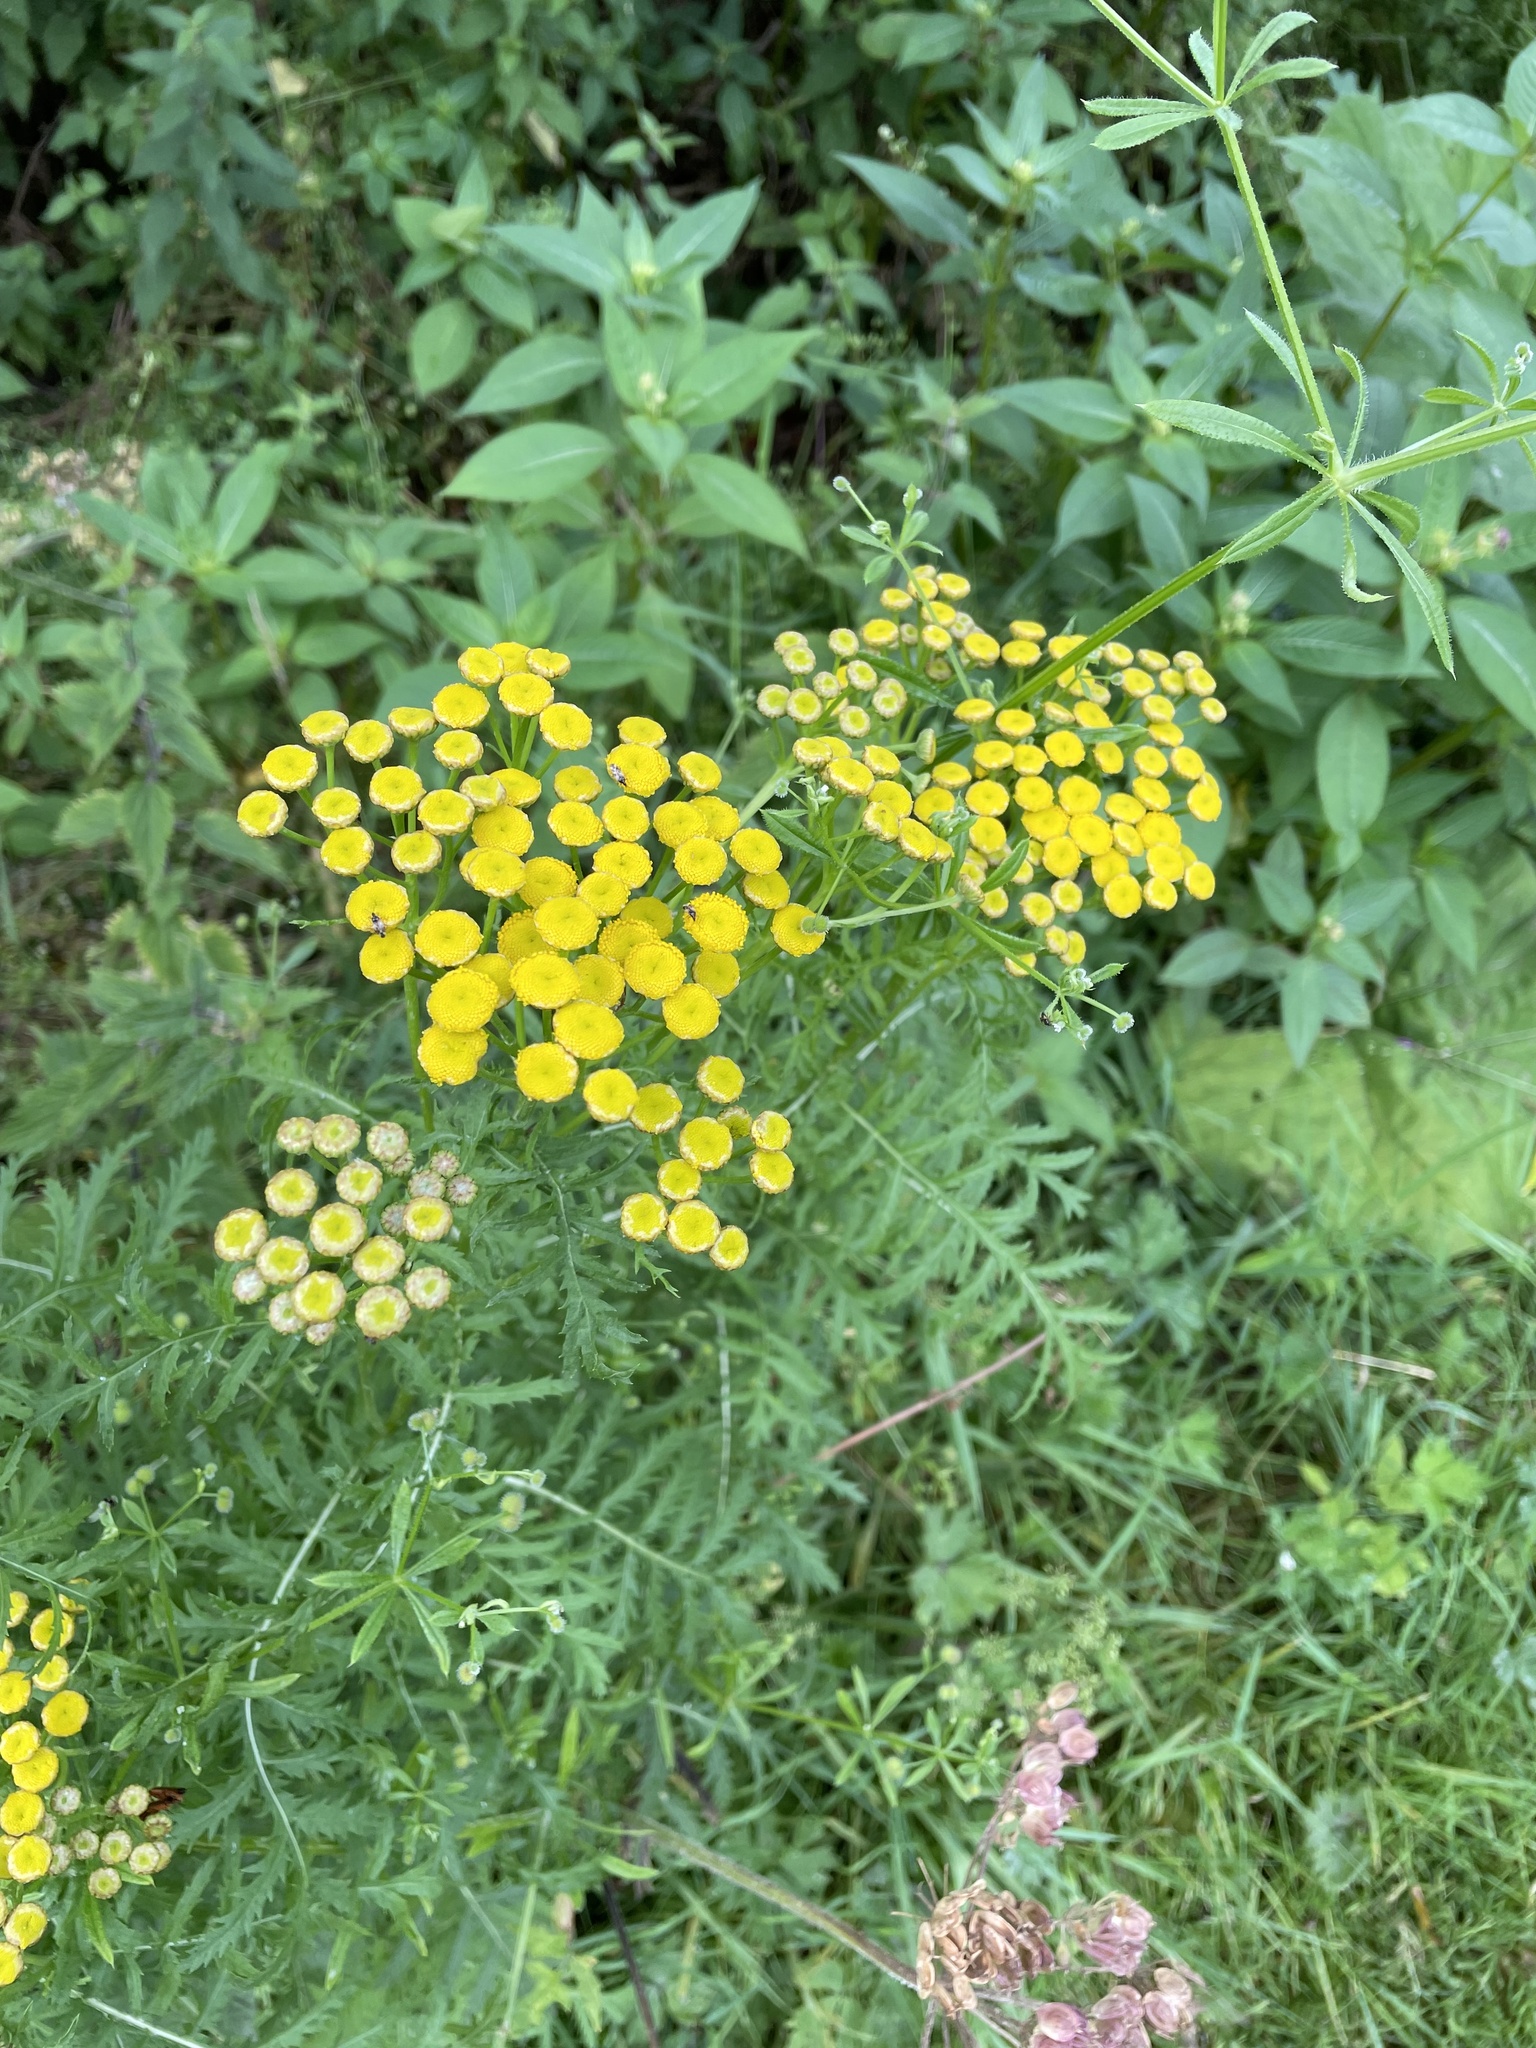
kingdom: Plantae
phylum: Tracheophyta
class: Magnoliopsida
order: Asterales
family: Asteraceae
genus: Tanacetum
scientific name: Tanacetum vulgare
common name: Common tansy
